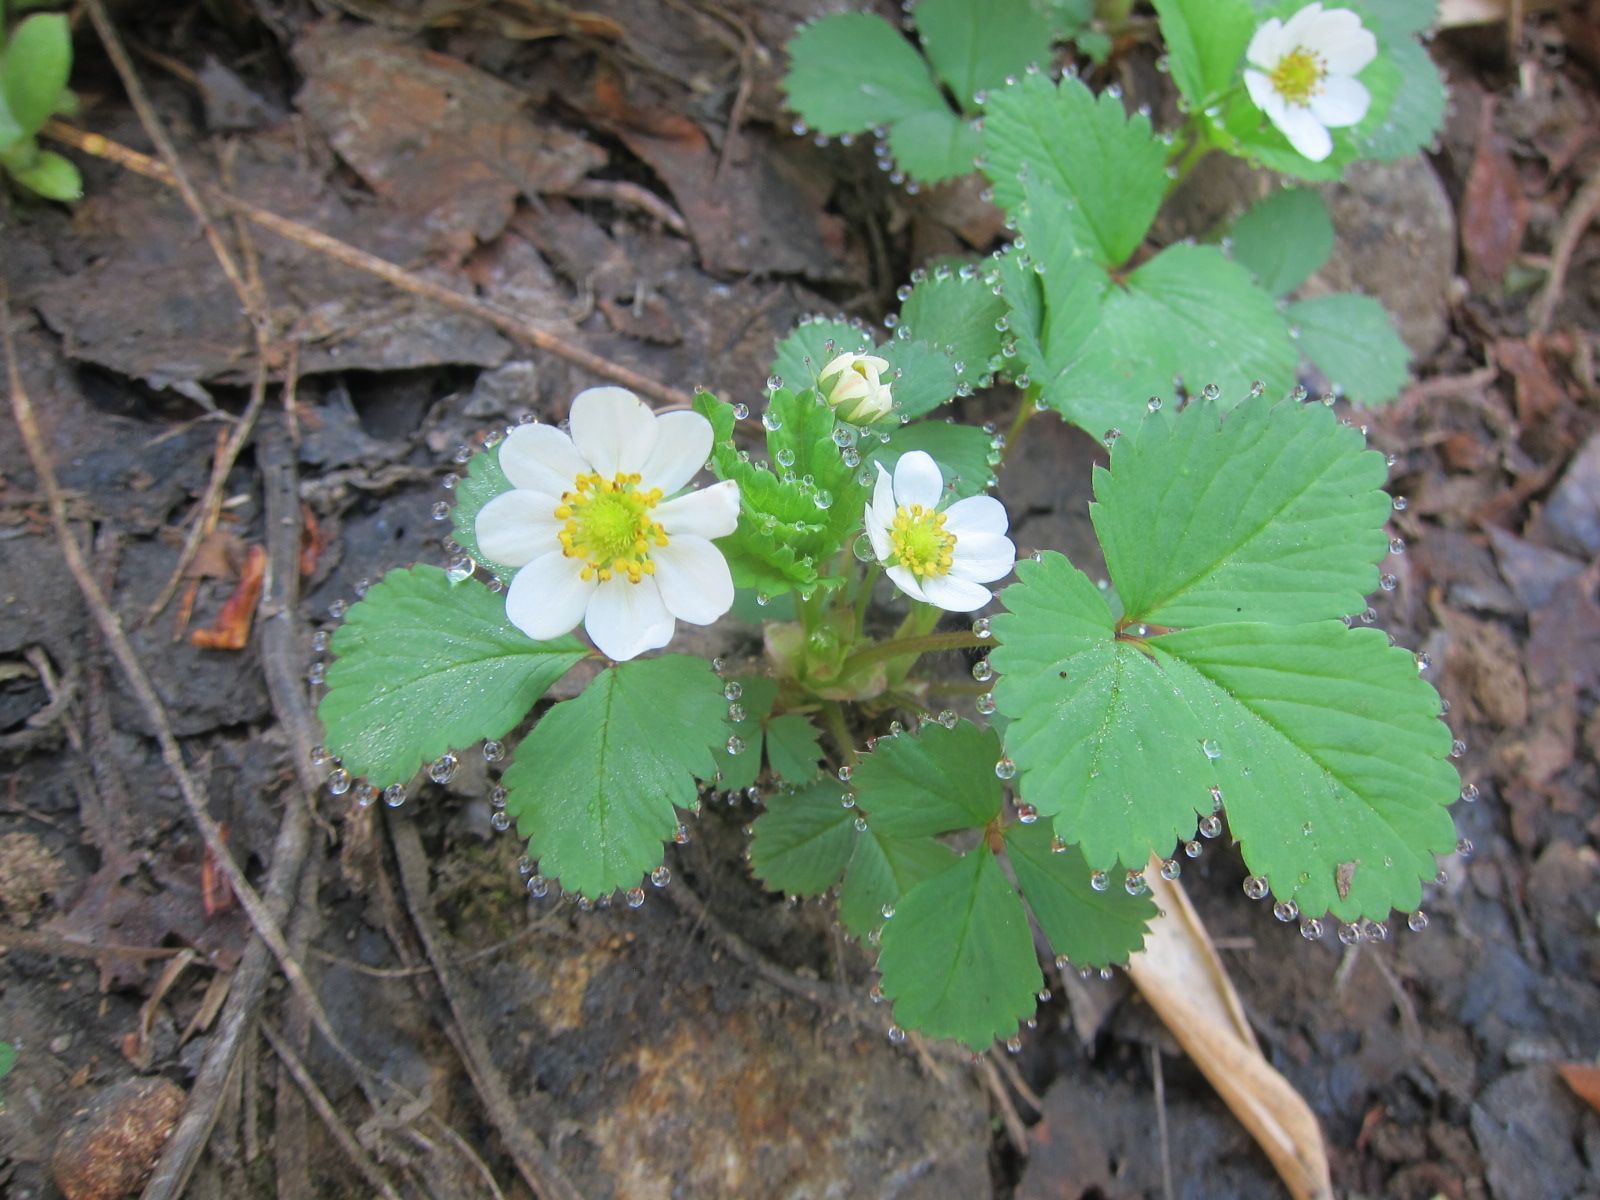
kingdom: Plantae
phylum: Tracheophyta
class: Magnoliopsida
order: Rosales
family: Rosaceae
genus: Fragaria
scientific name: Fragaria iinumae
